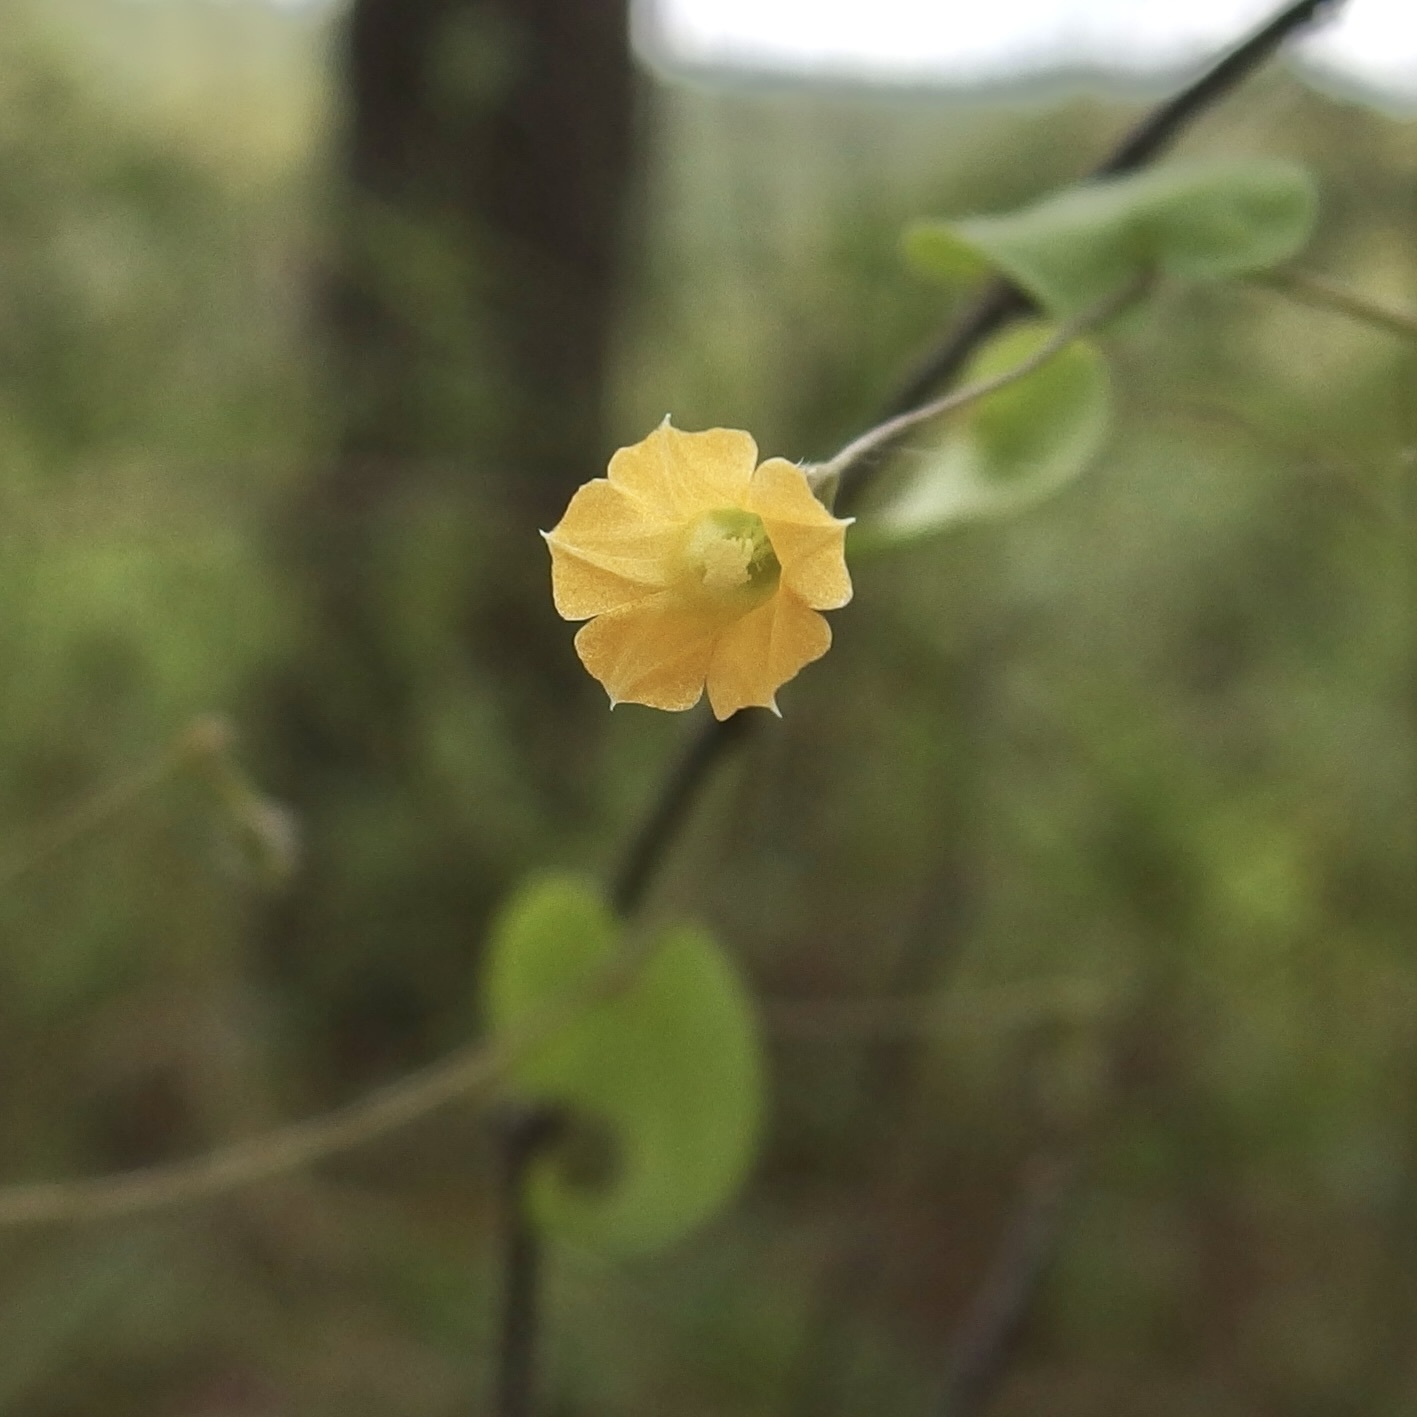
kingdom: Plantae
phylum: Tracheophyta
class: Magnoliopsida
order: Solanales
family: Convolvulaceae
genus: Ipomoea
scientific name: Ipomoea minutiflora
